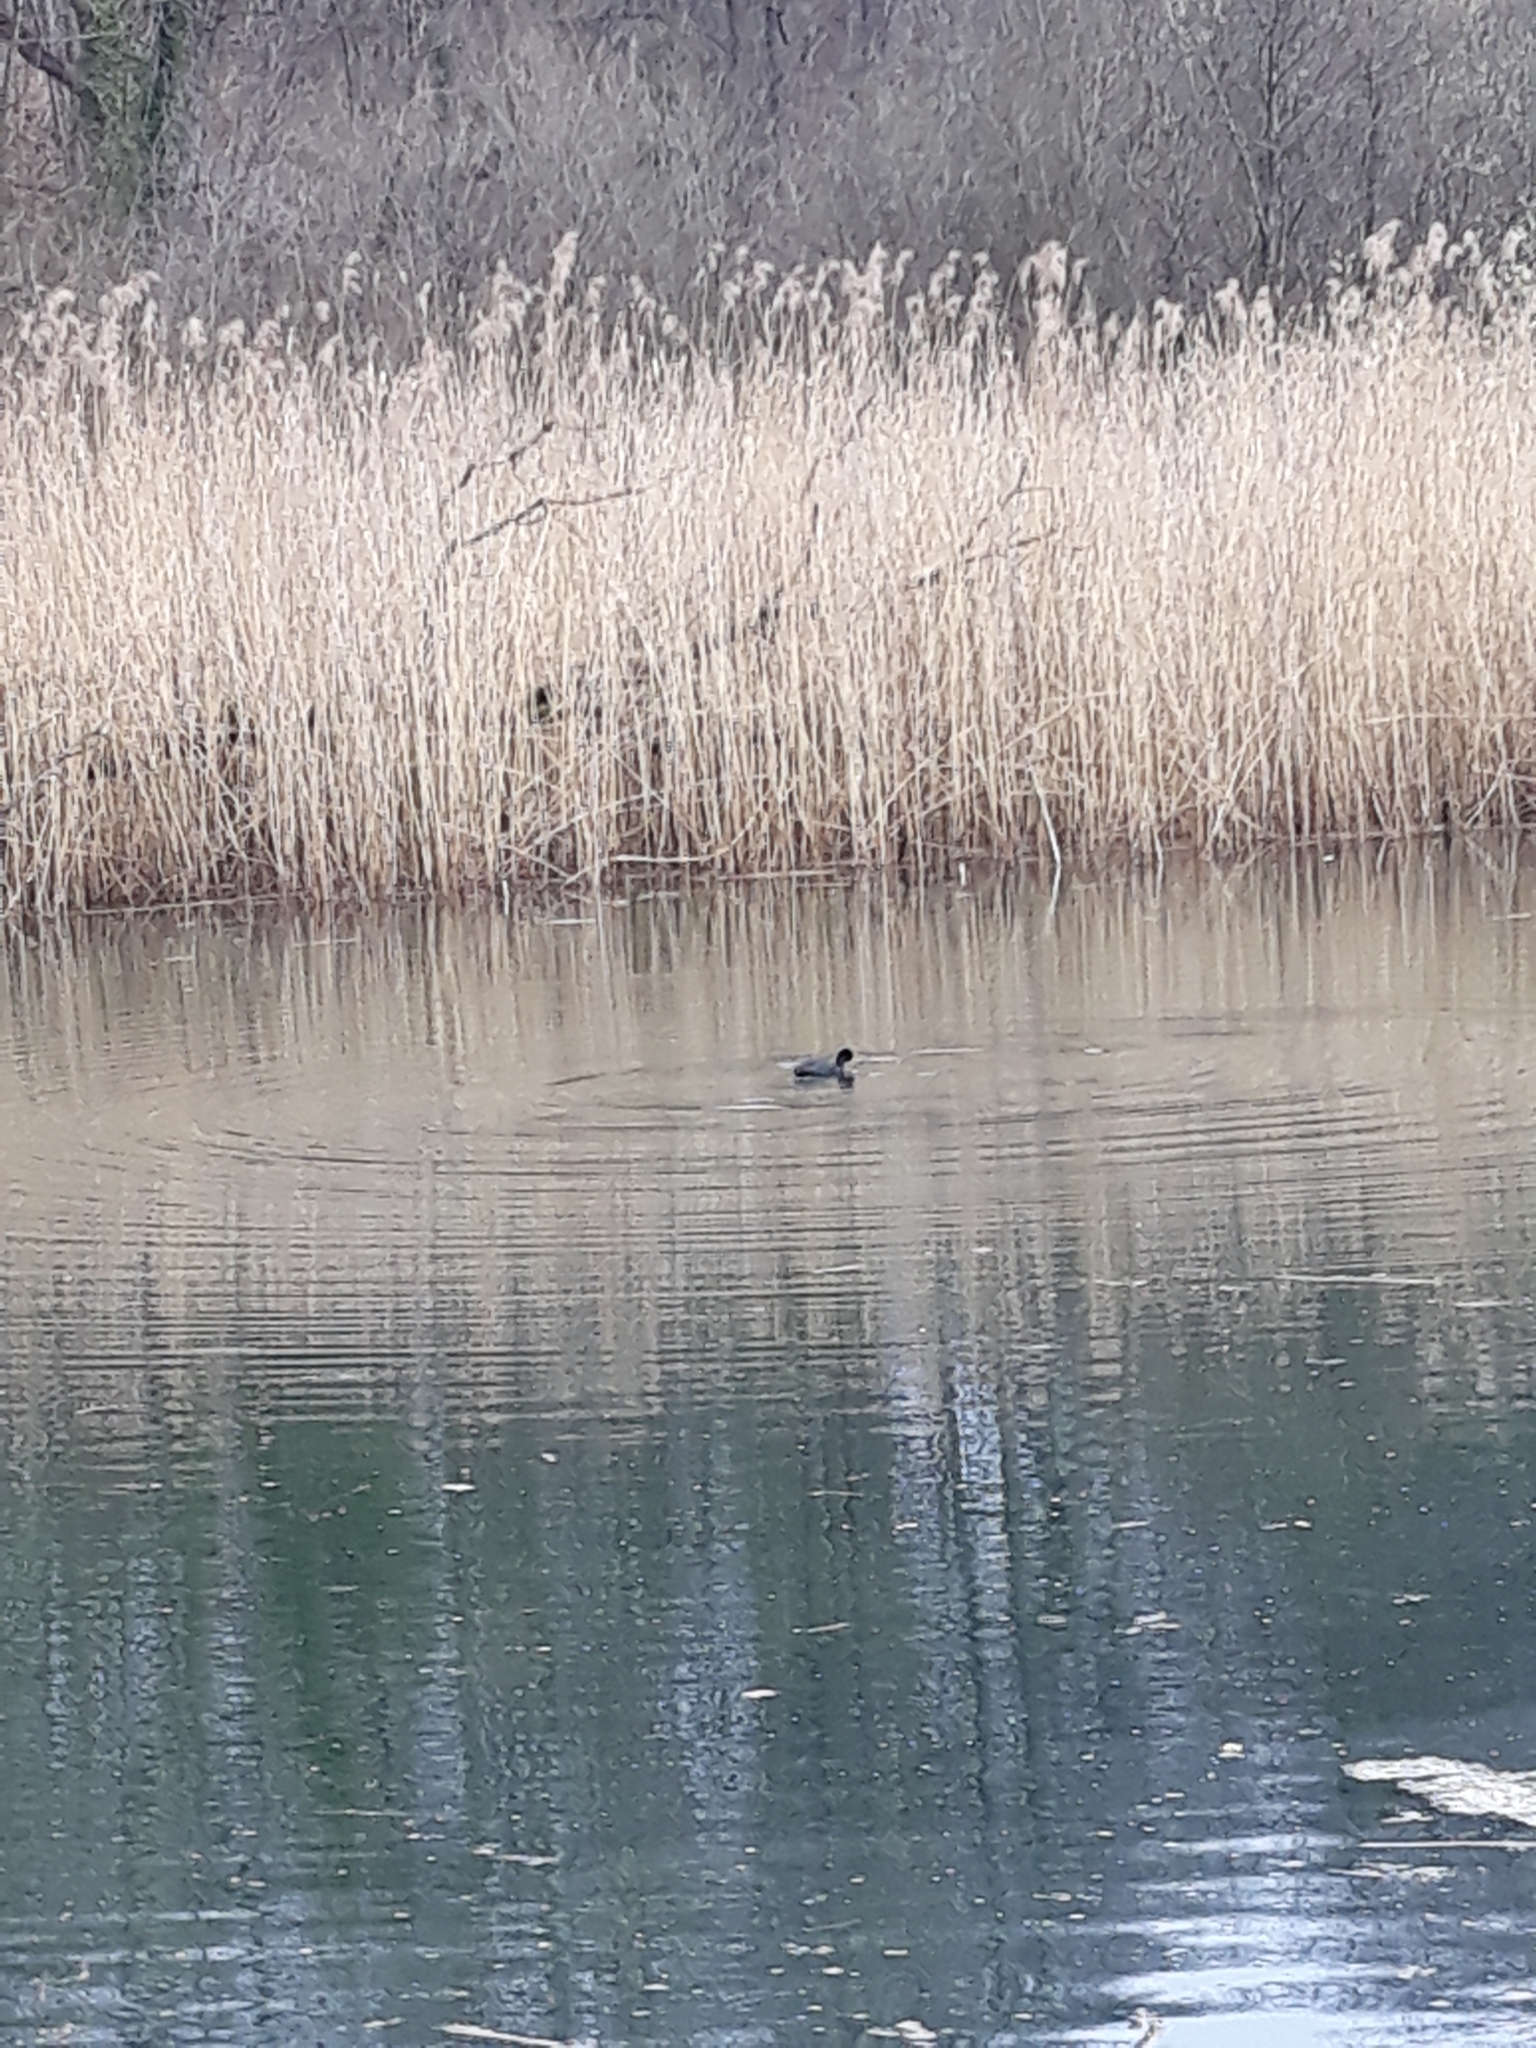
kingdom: Animalia
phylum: Chordata
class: Aves
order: Gruiformes
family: Rallidae
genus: Fulica
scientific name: Fulica atra
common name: Eurasian coot
